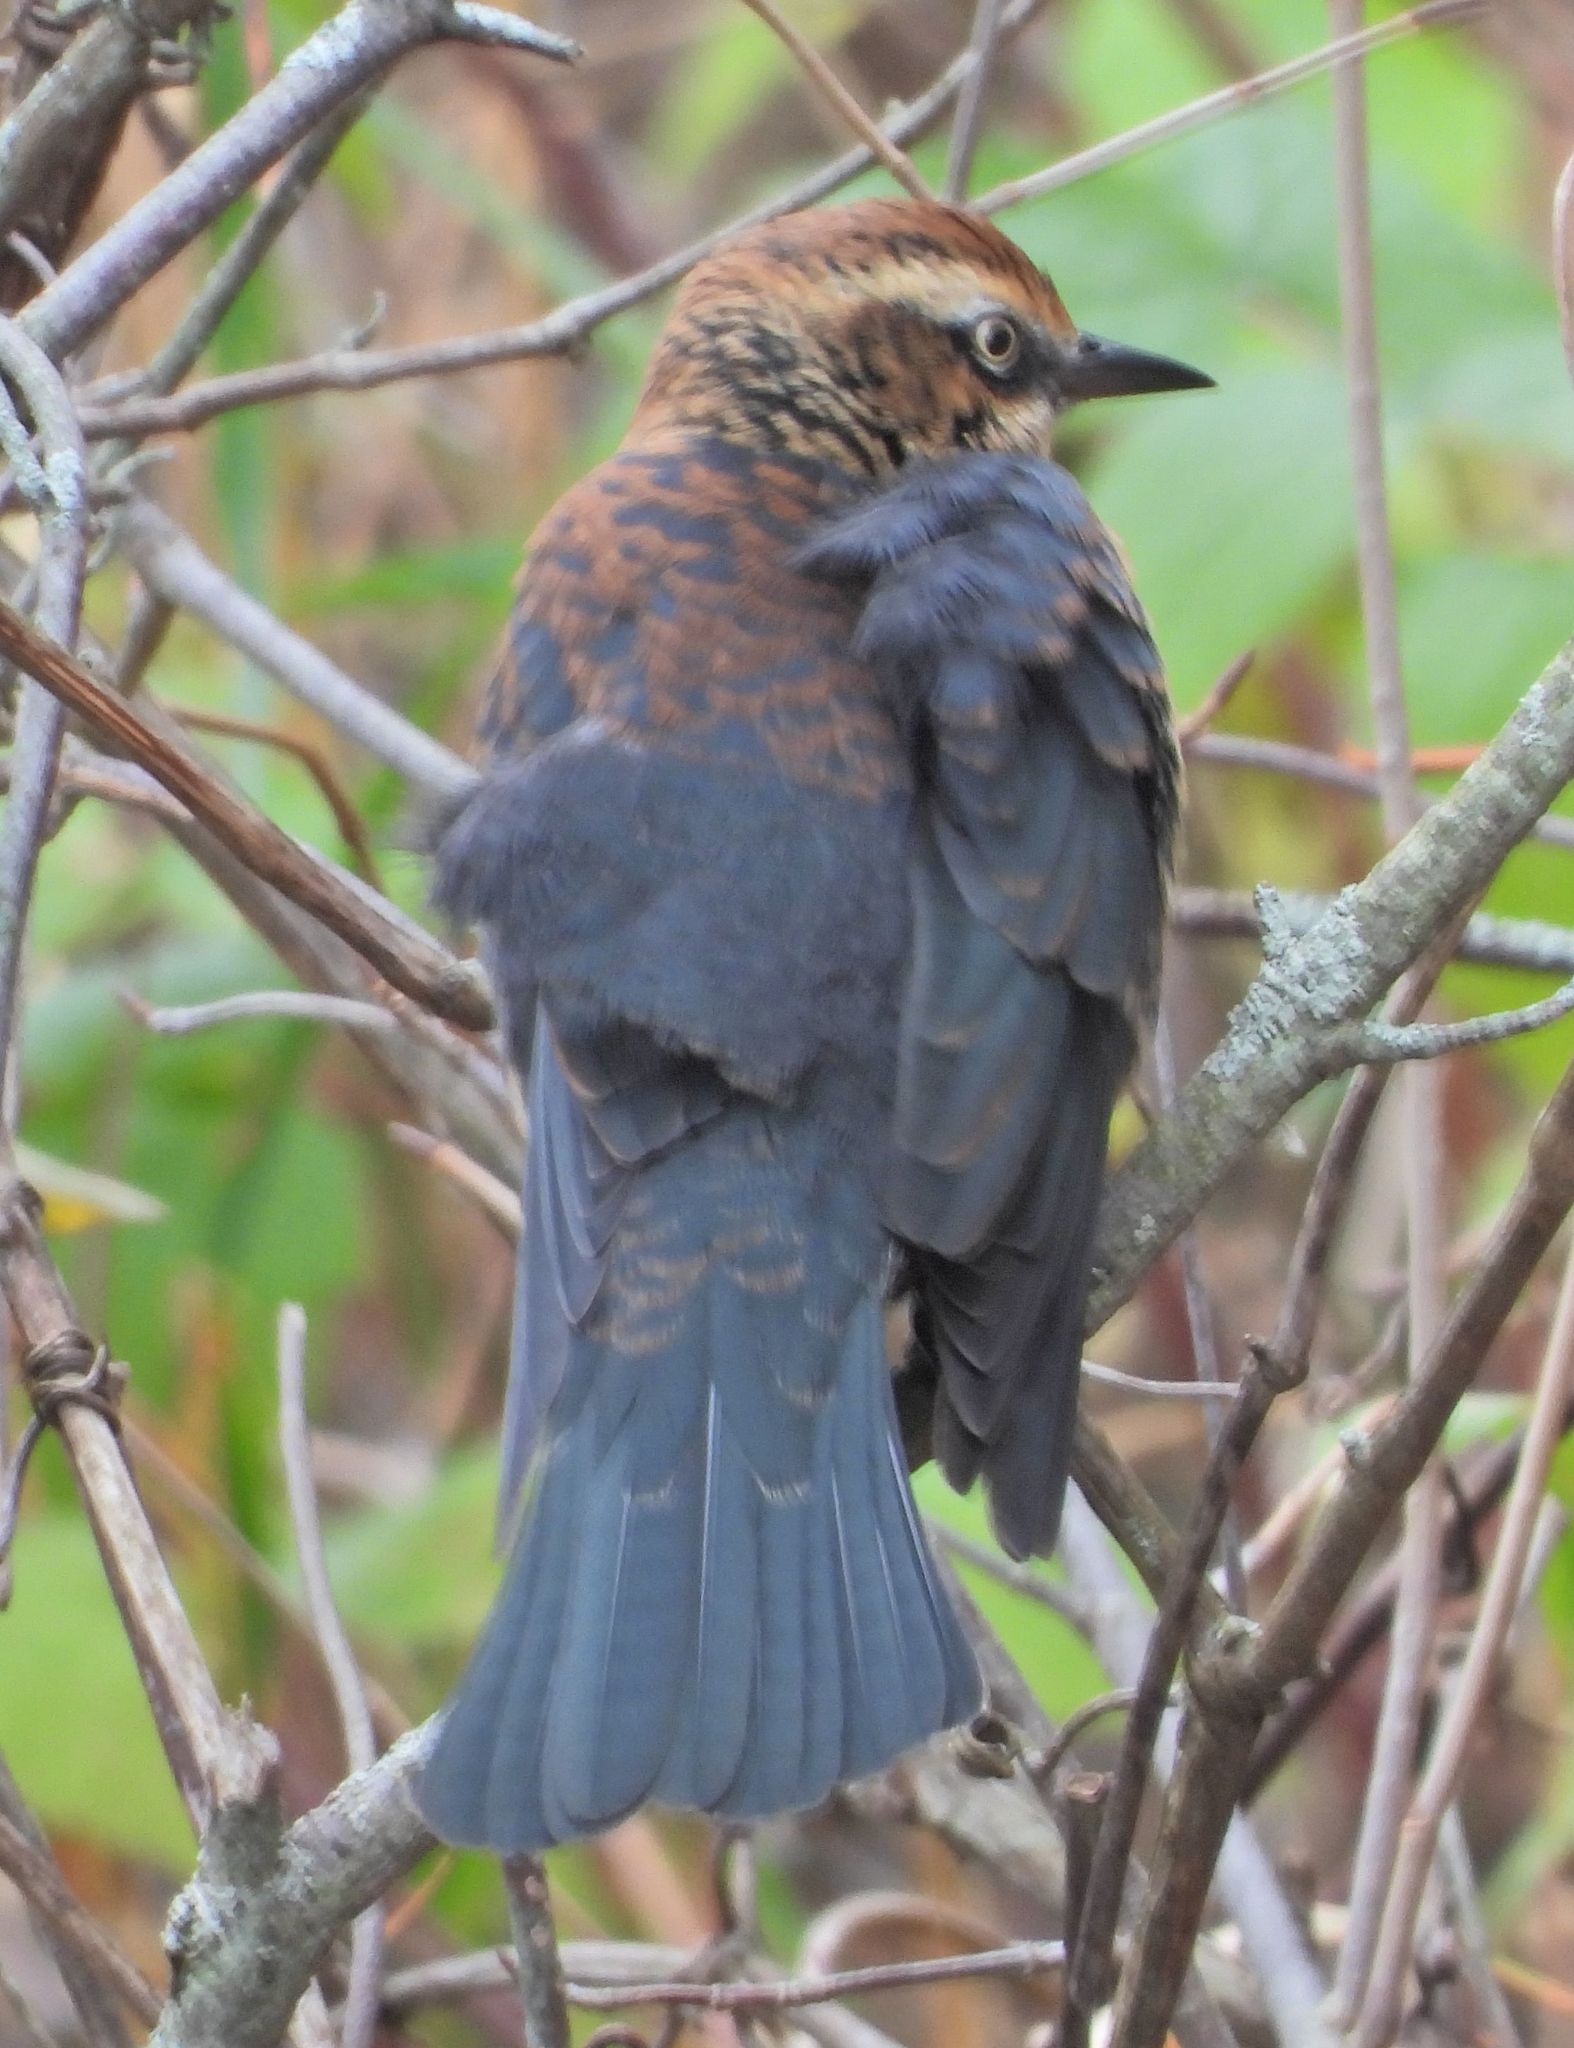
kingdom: Animalia
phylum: Chordata
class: Aves
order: Passeriformes
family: Icteridae
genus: Euphagus
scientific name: Euphagus carolinus
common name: Rusty blackbird
